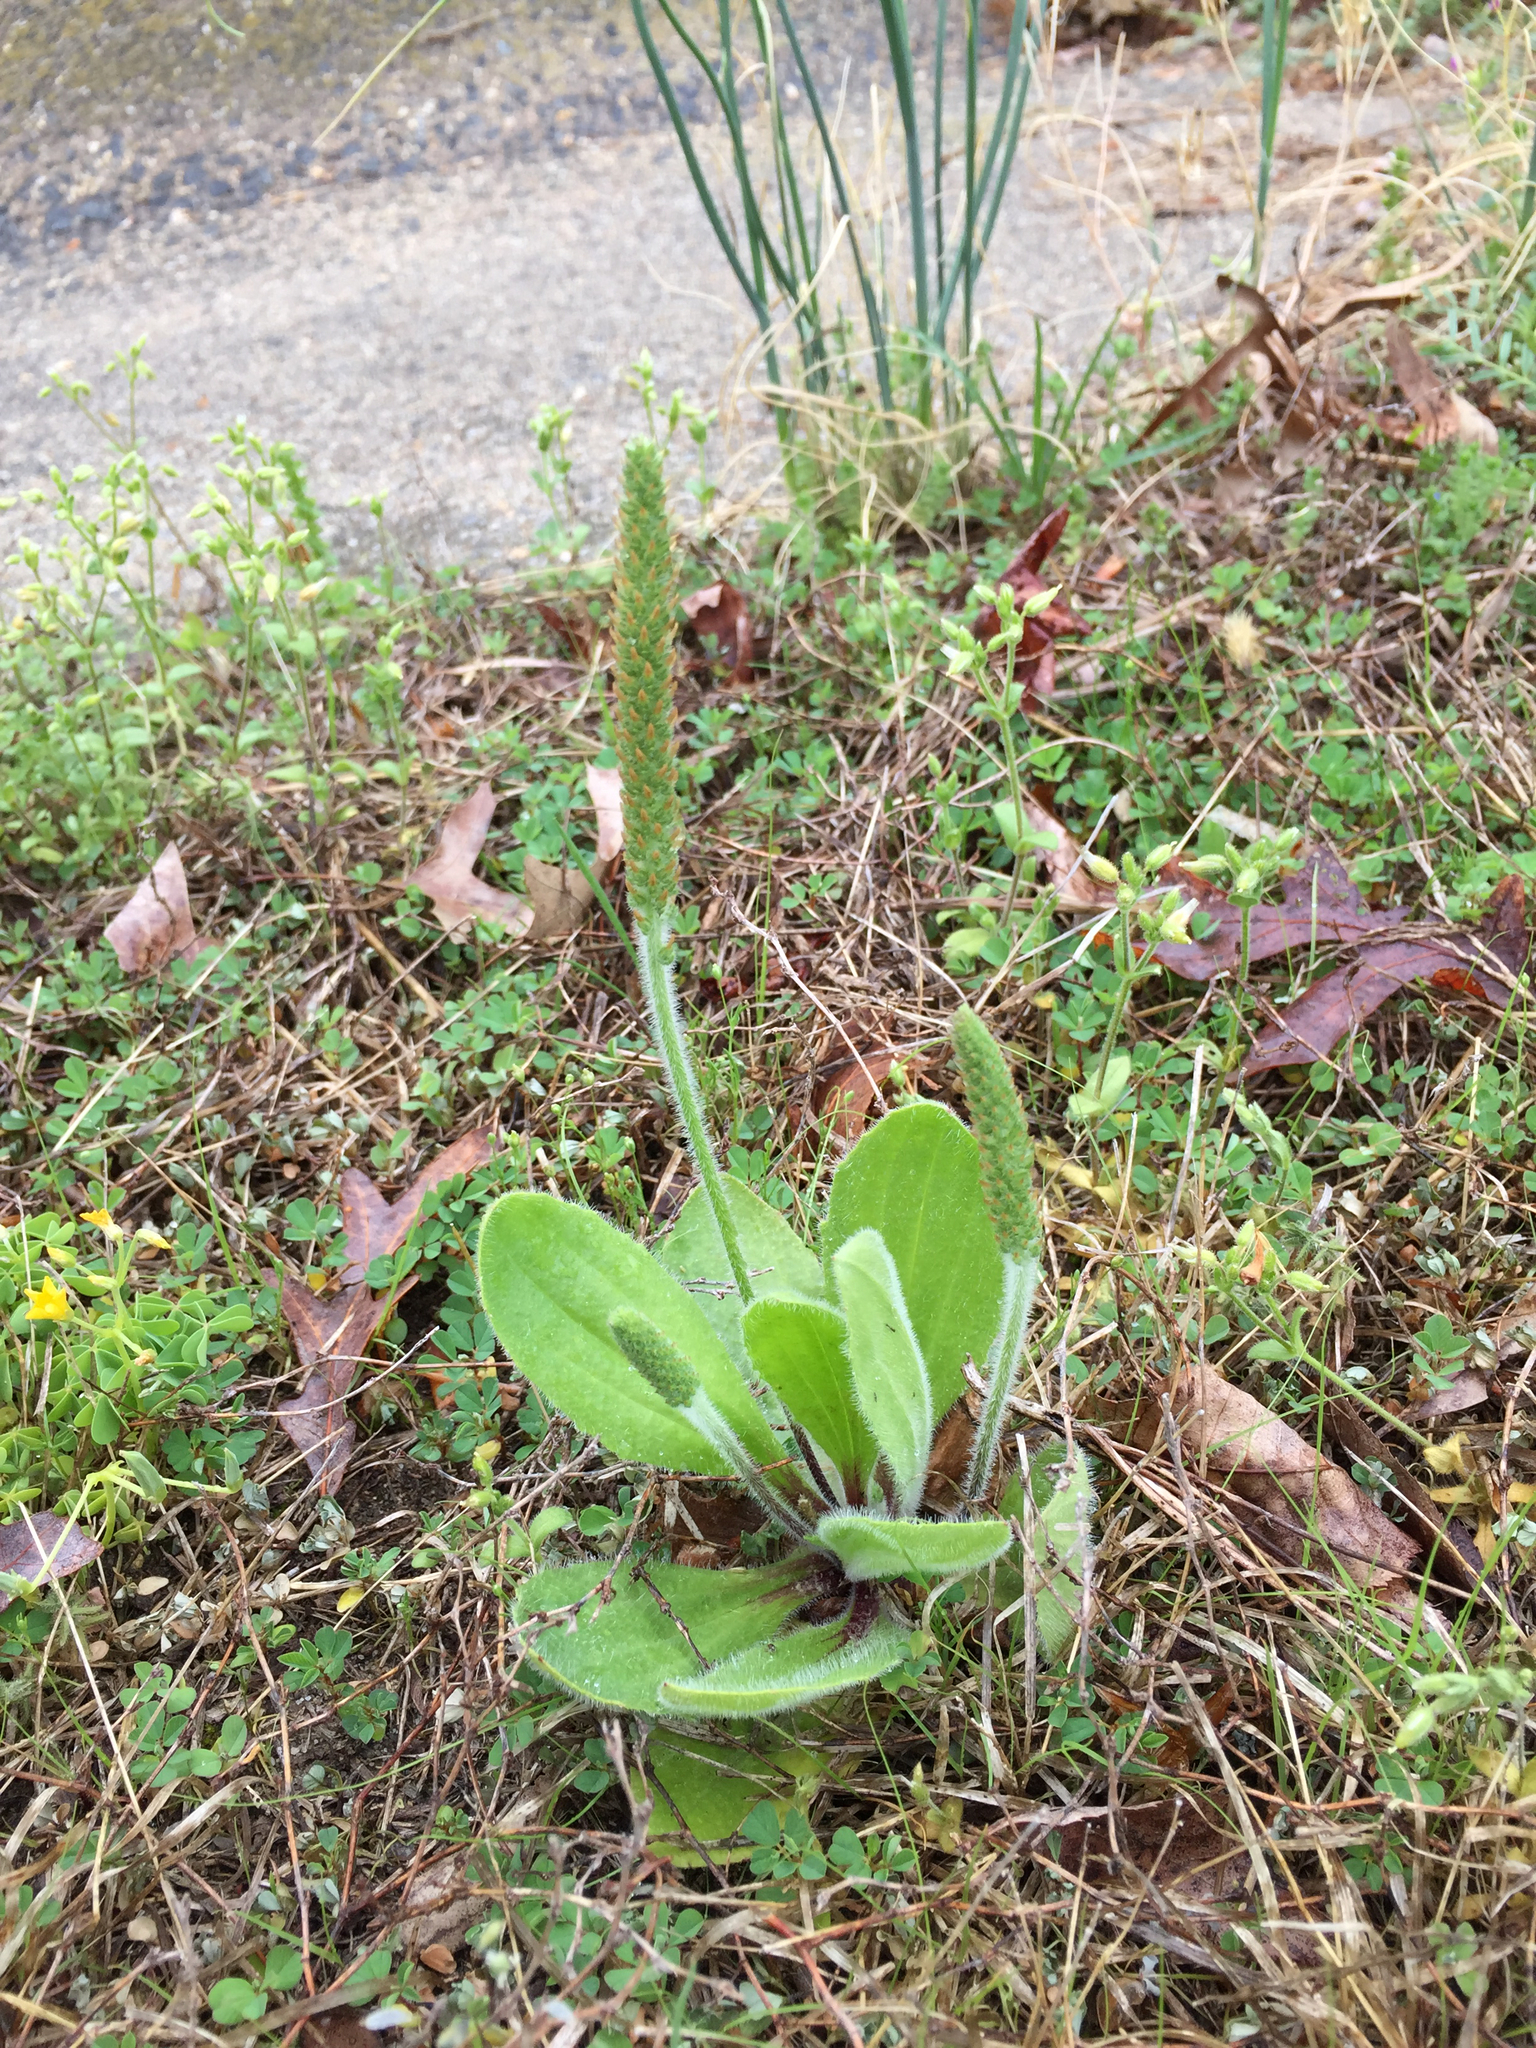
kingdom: Plantae
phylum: Tracheophyta
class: Magnoliopsida
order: Lamiales
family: Plantaginaceae
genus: Plantago
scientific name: Plantago virginica
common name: Hoary plantain
